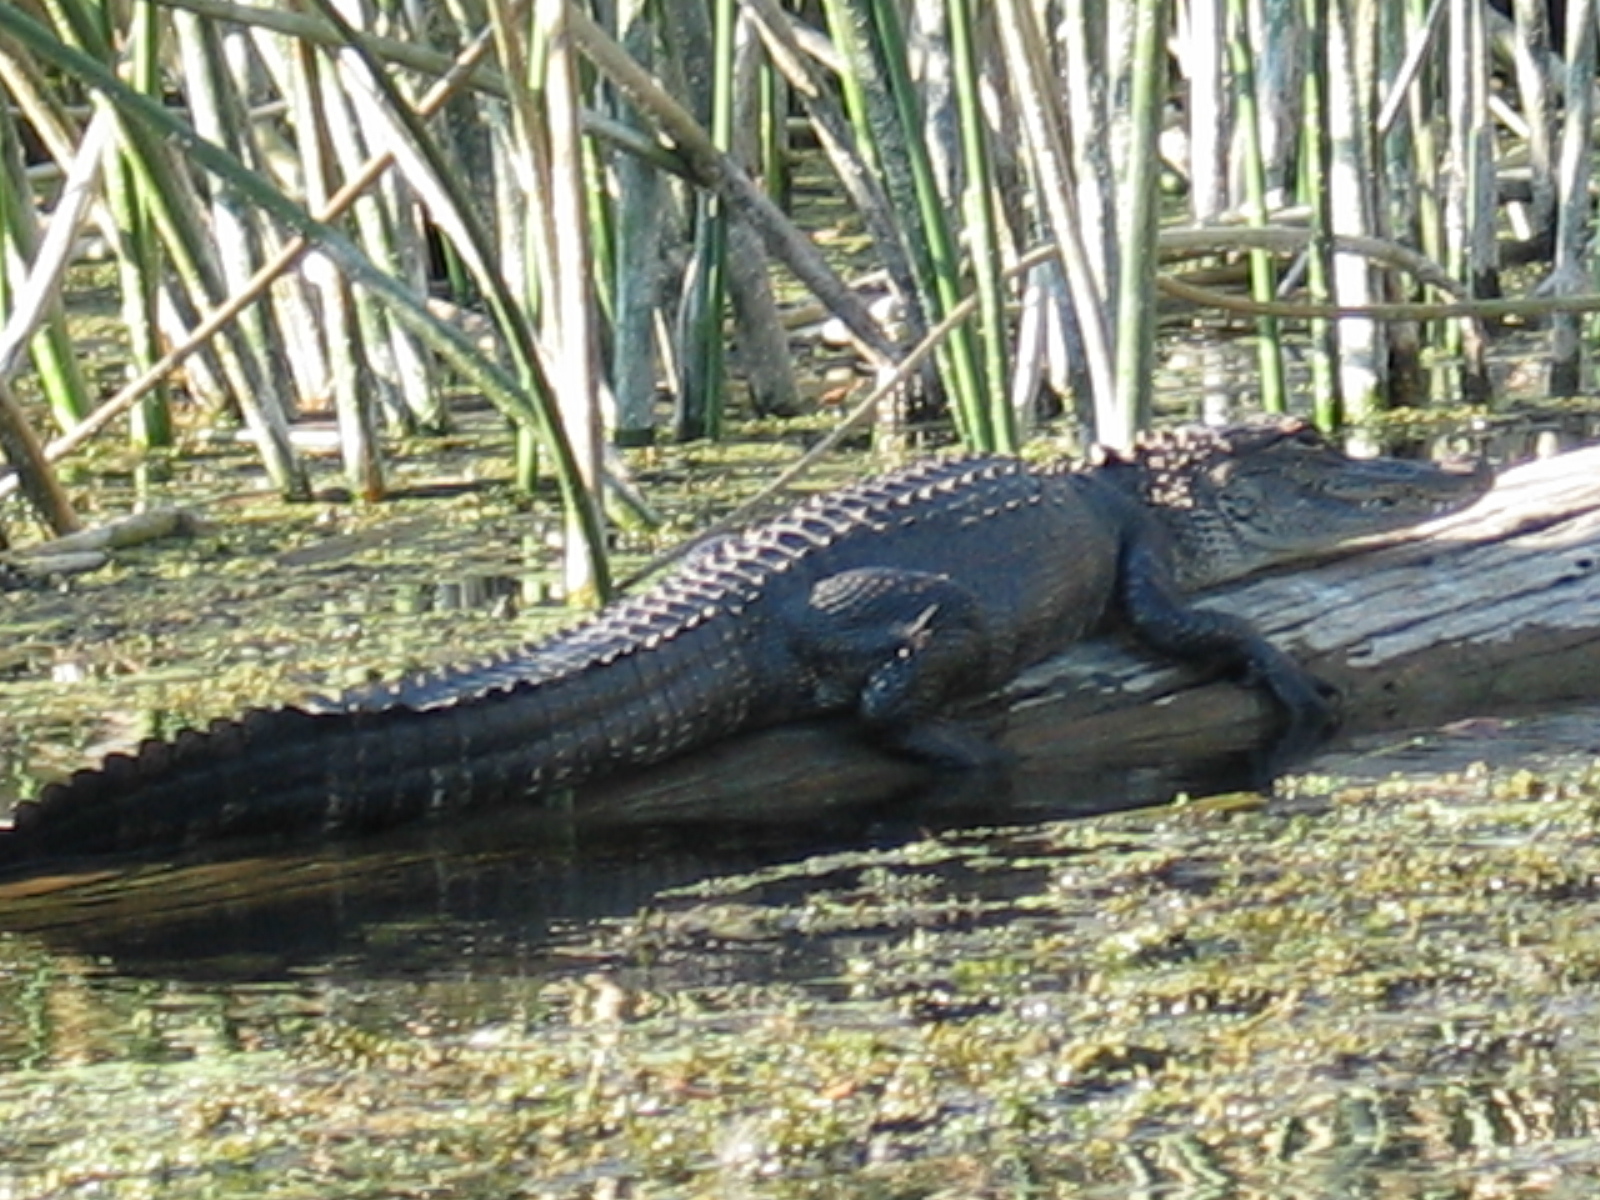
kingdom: Animalia
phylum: Chordata
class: Crocodylia
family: Alligatoridae
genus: Alligator
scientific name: Alligator mississippiensis
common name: American alligator
